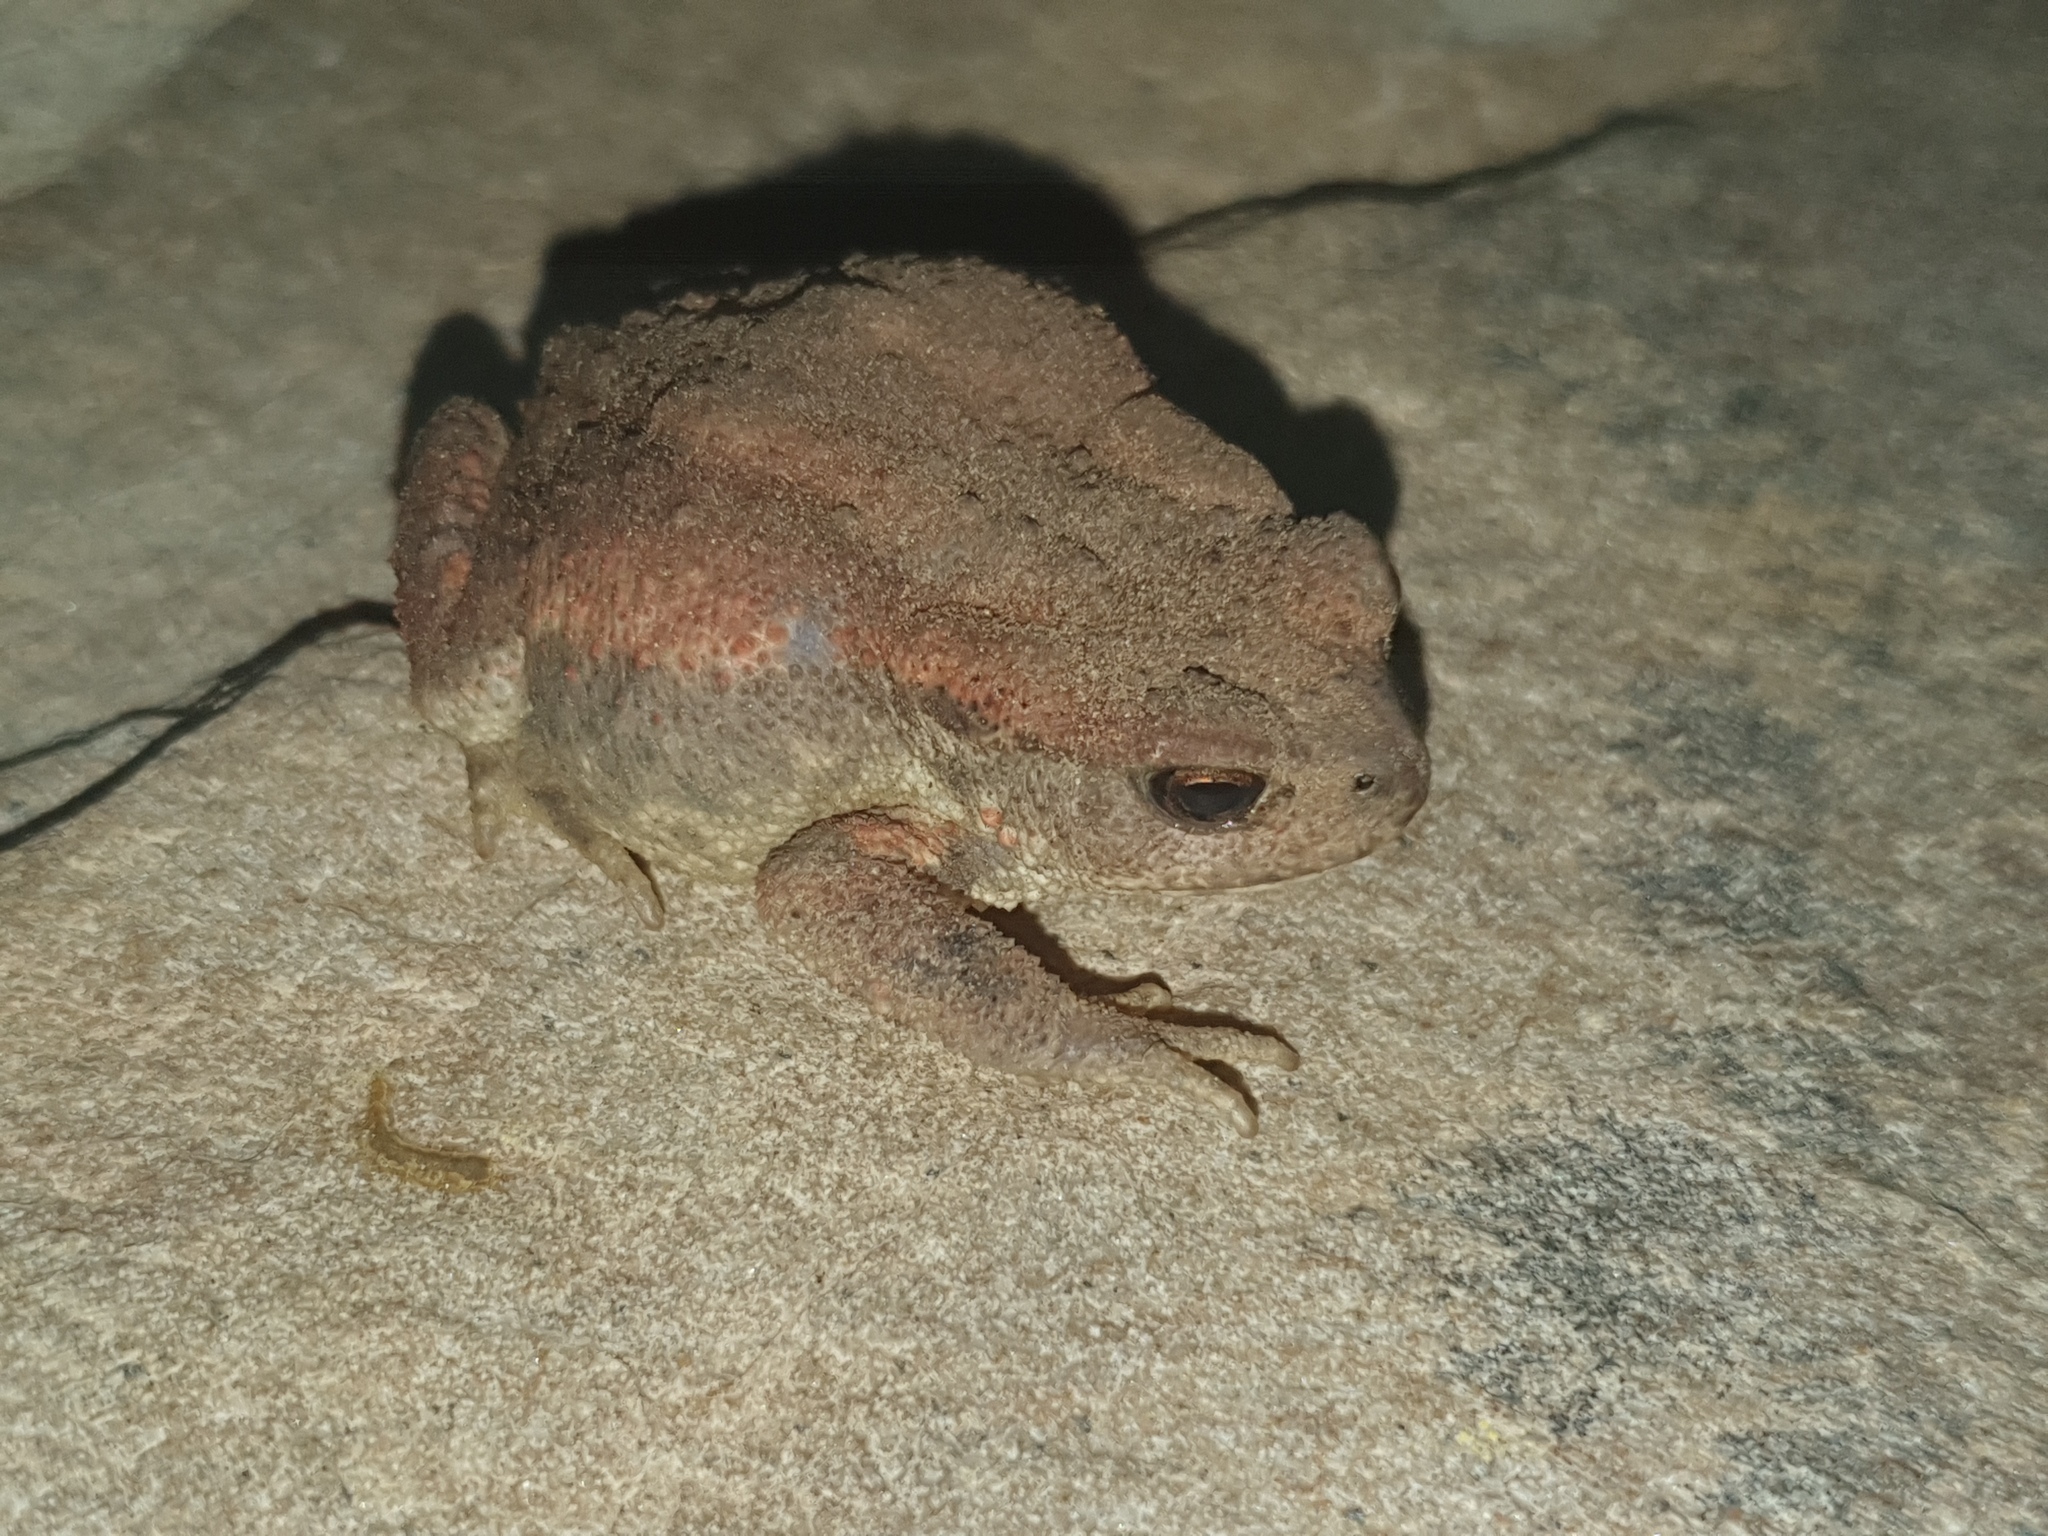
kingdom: Animalia
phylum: Chordata
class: Amphibia
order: Anura
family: Bufonidae
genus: Bufo
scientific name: Bufo spinosus
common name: Western common toad
